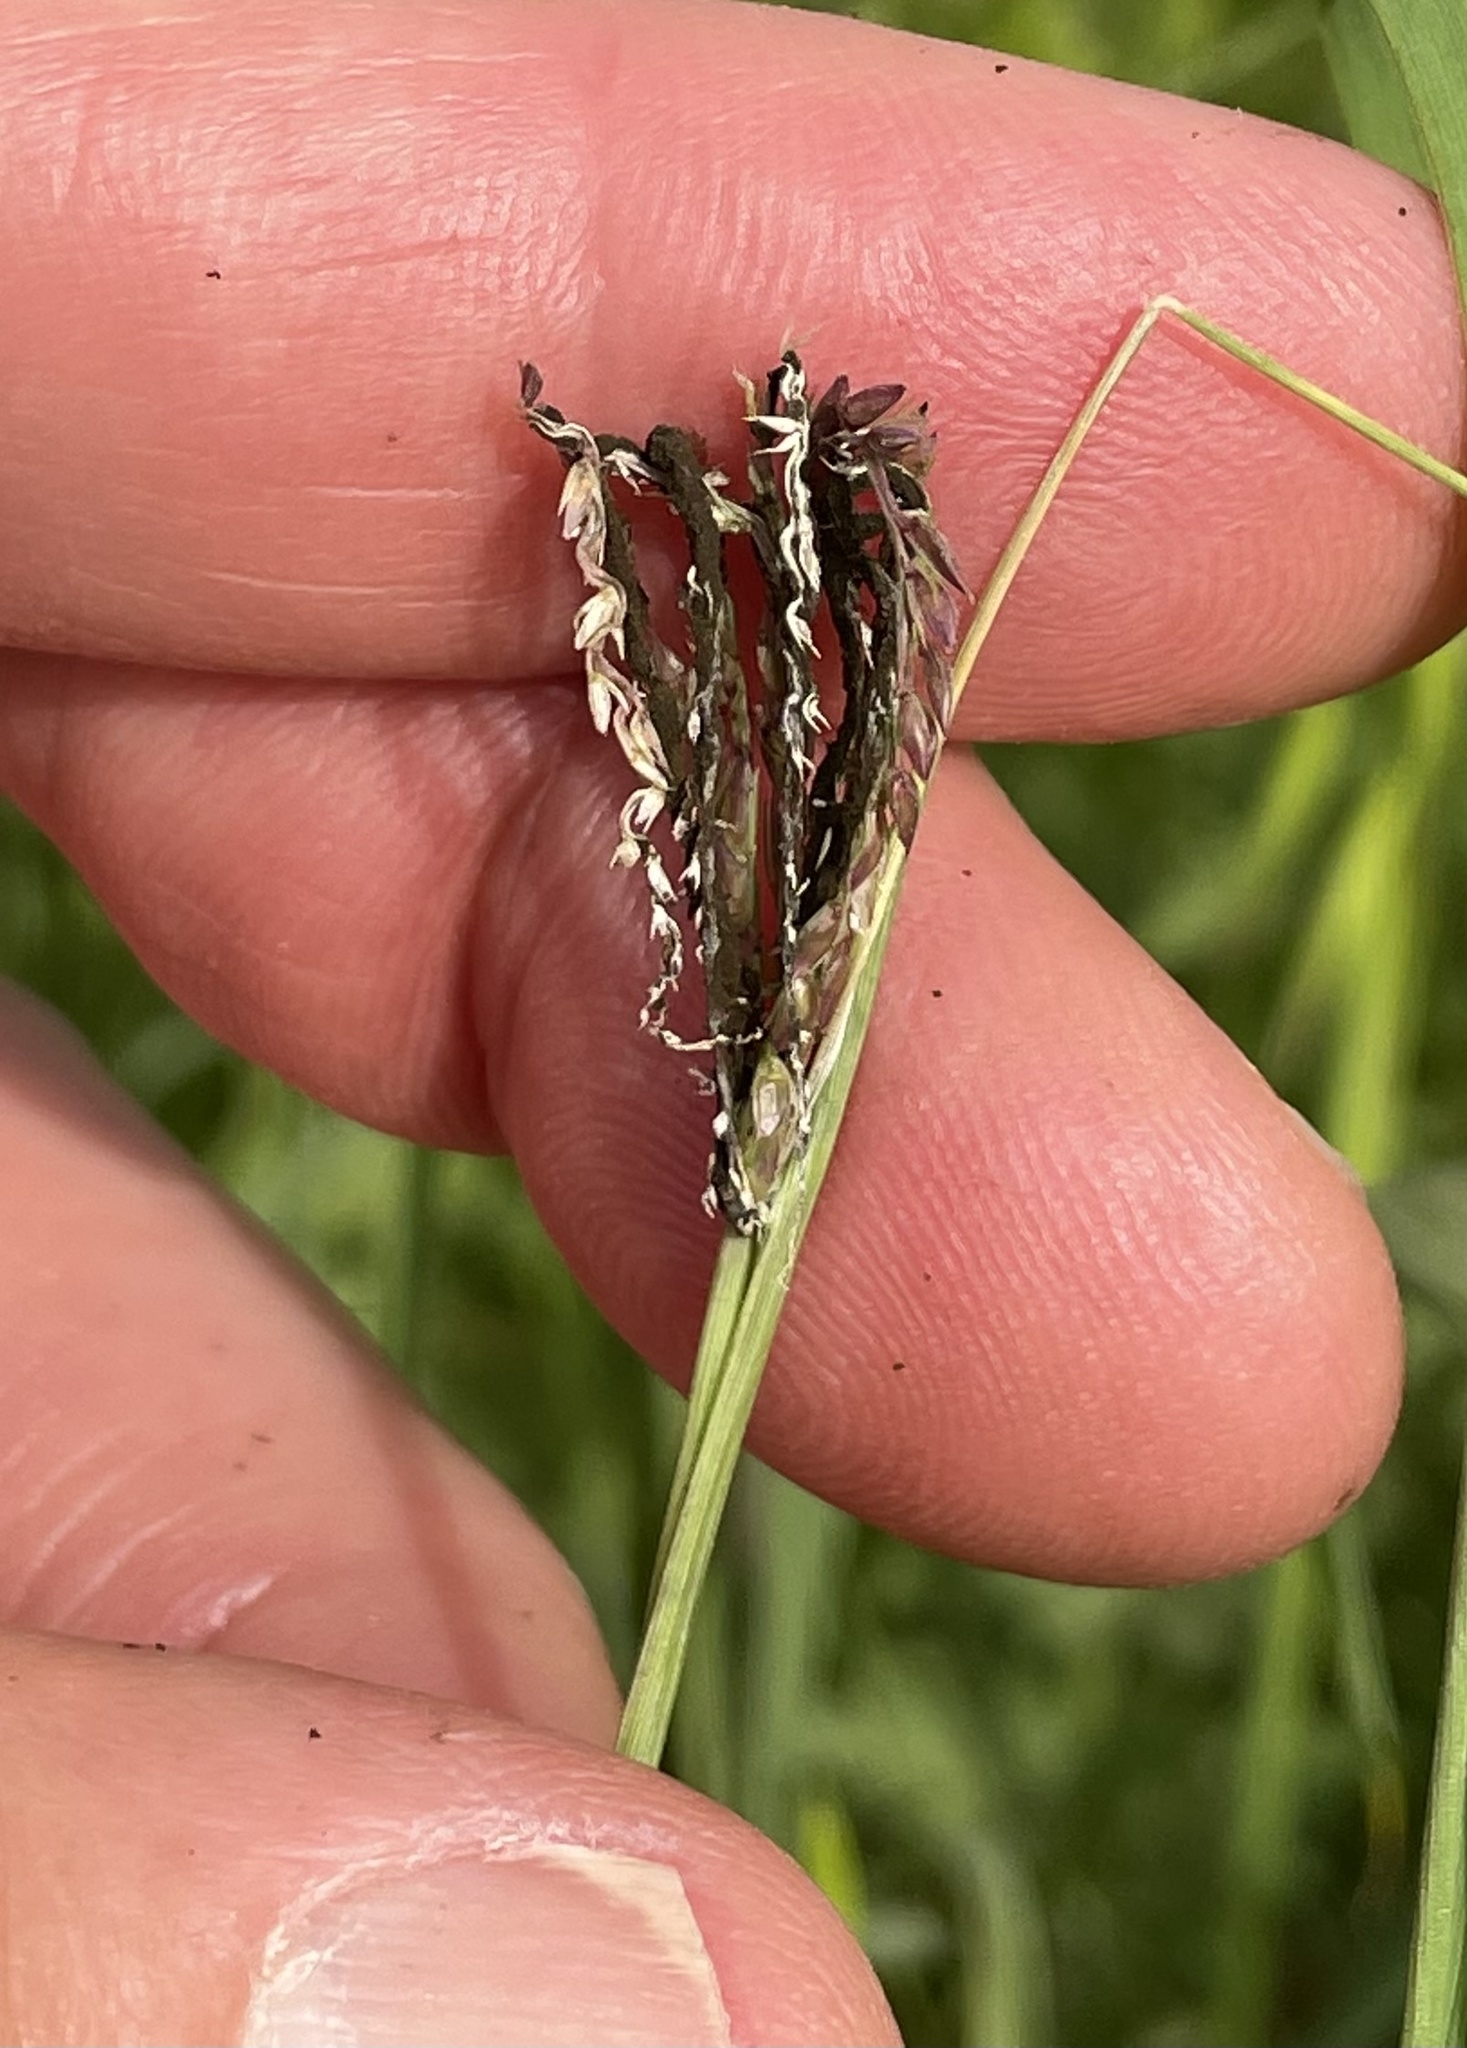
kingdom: Fungi
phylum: Basidiomycota
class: Ustilaginomycetes
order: Ustilaginales
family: Ustilaginaceae
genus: Ustilago
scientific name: Ustilago cynodontis
